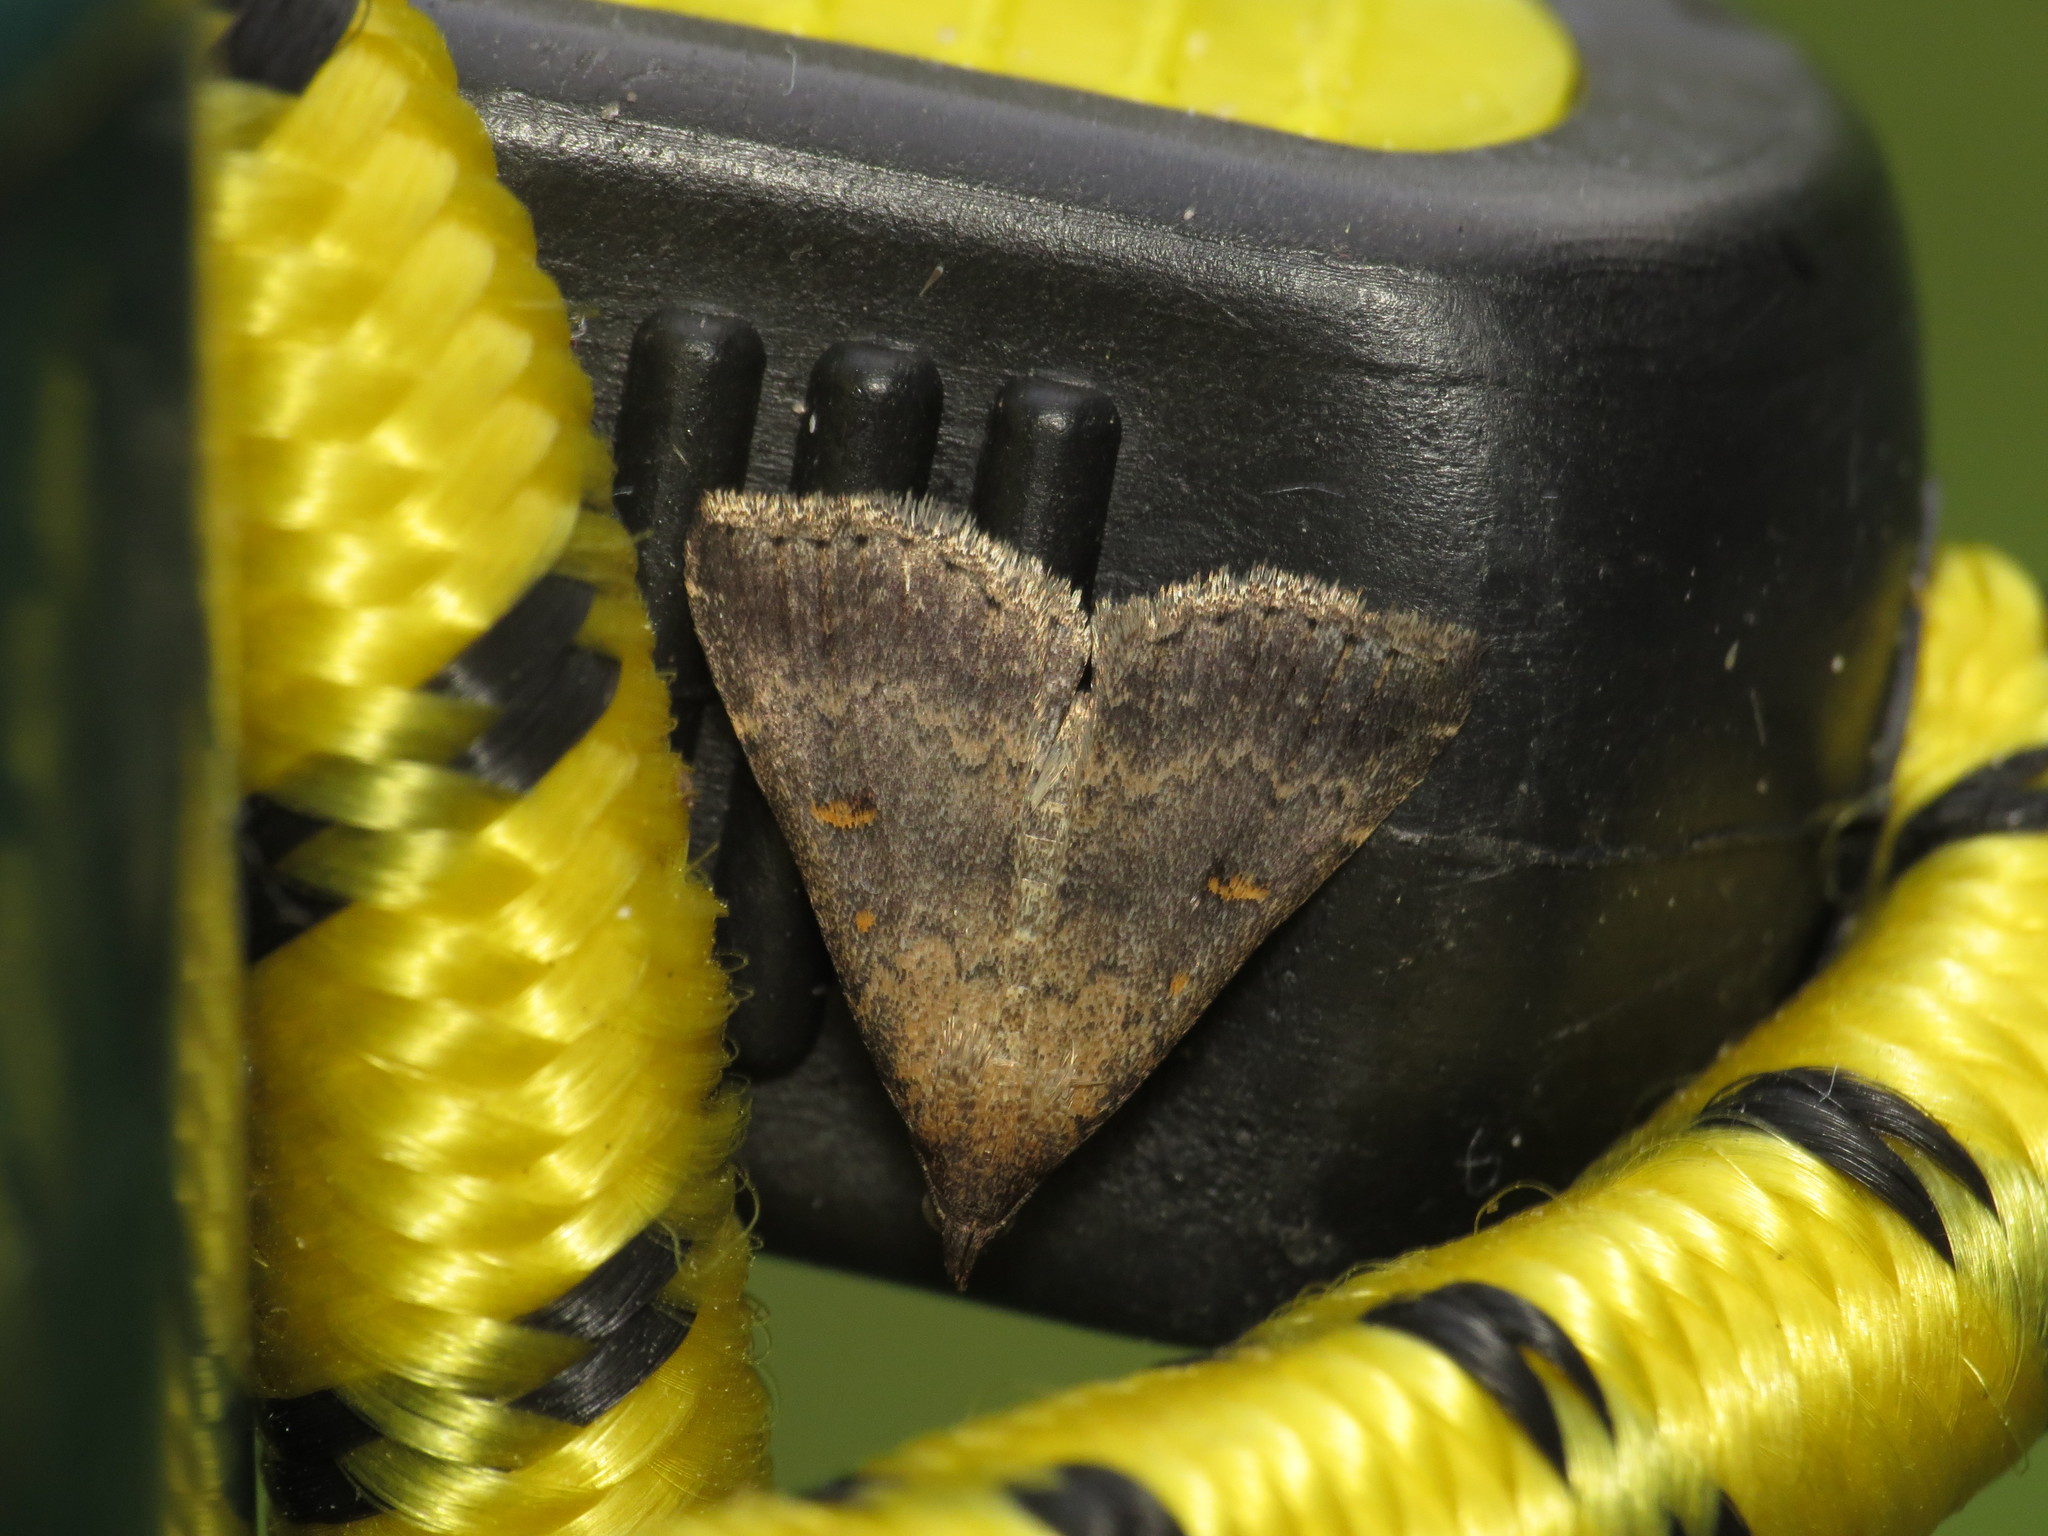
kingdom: Animalia
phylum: Arthropoda
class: Insecta
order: Lepidoptera
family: Erebidae
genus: Tetanolita
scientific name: Tetanolita floridana
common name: Florida tetanolita moth
